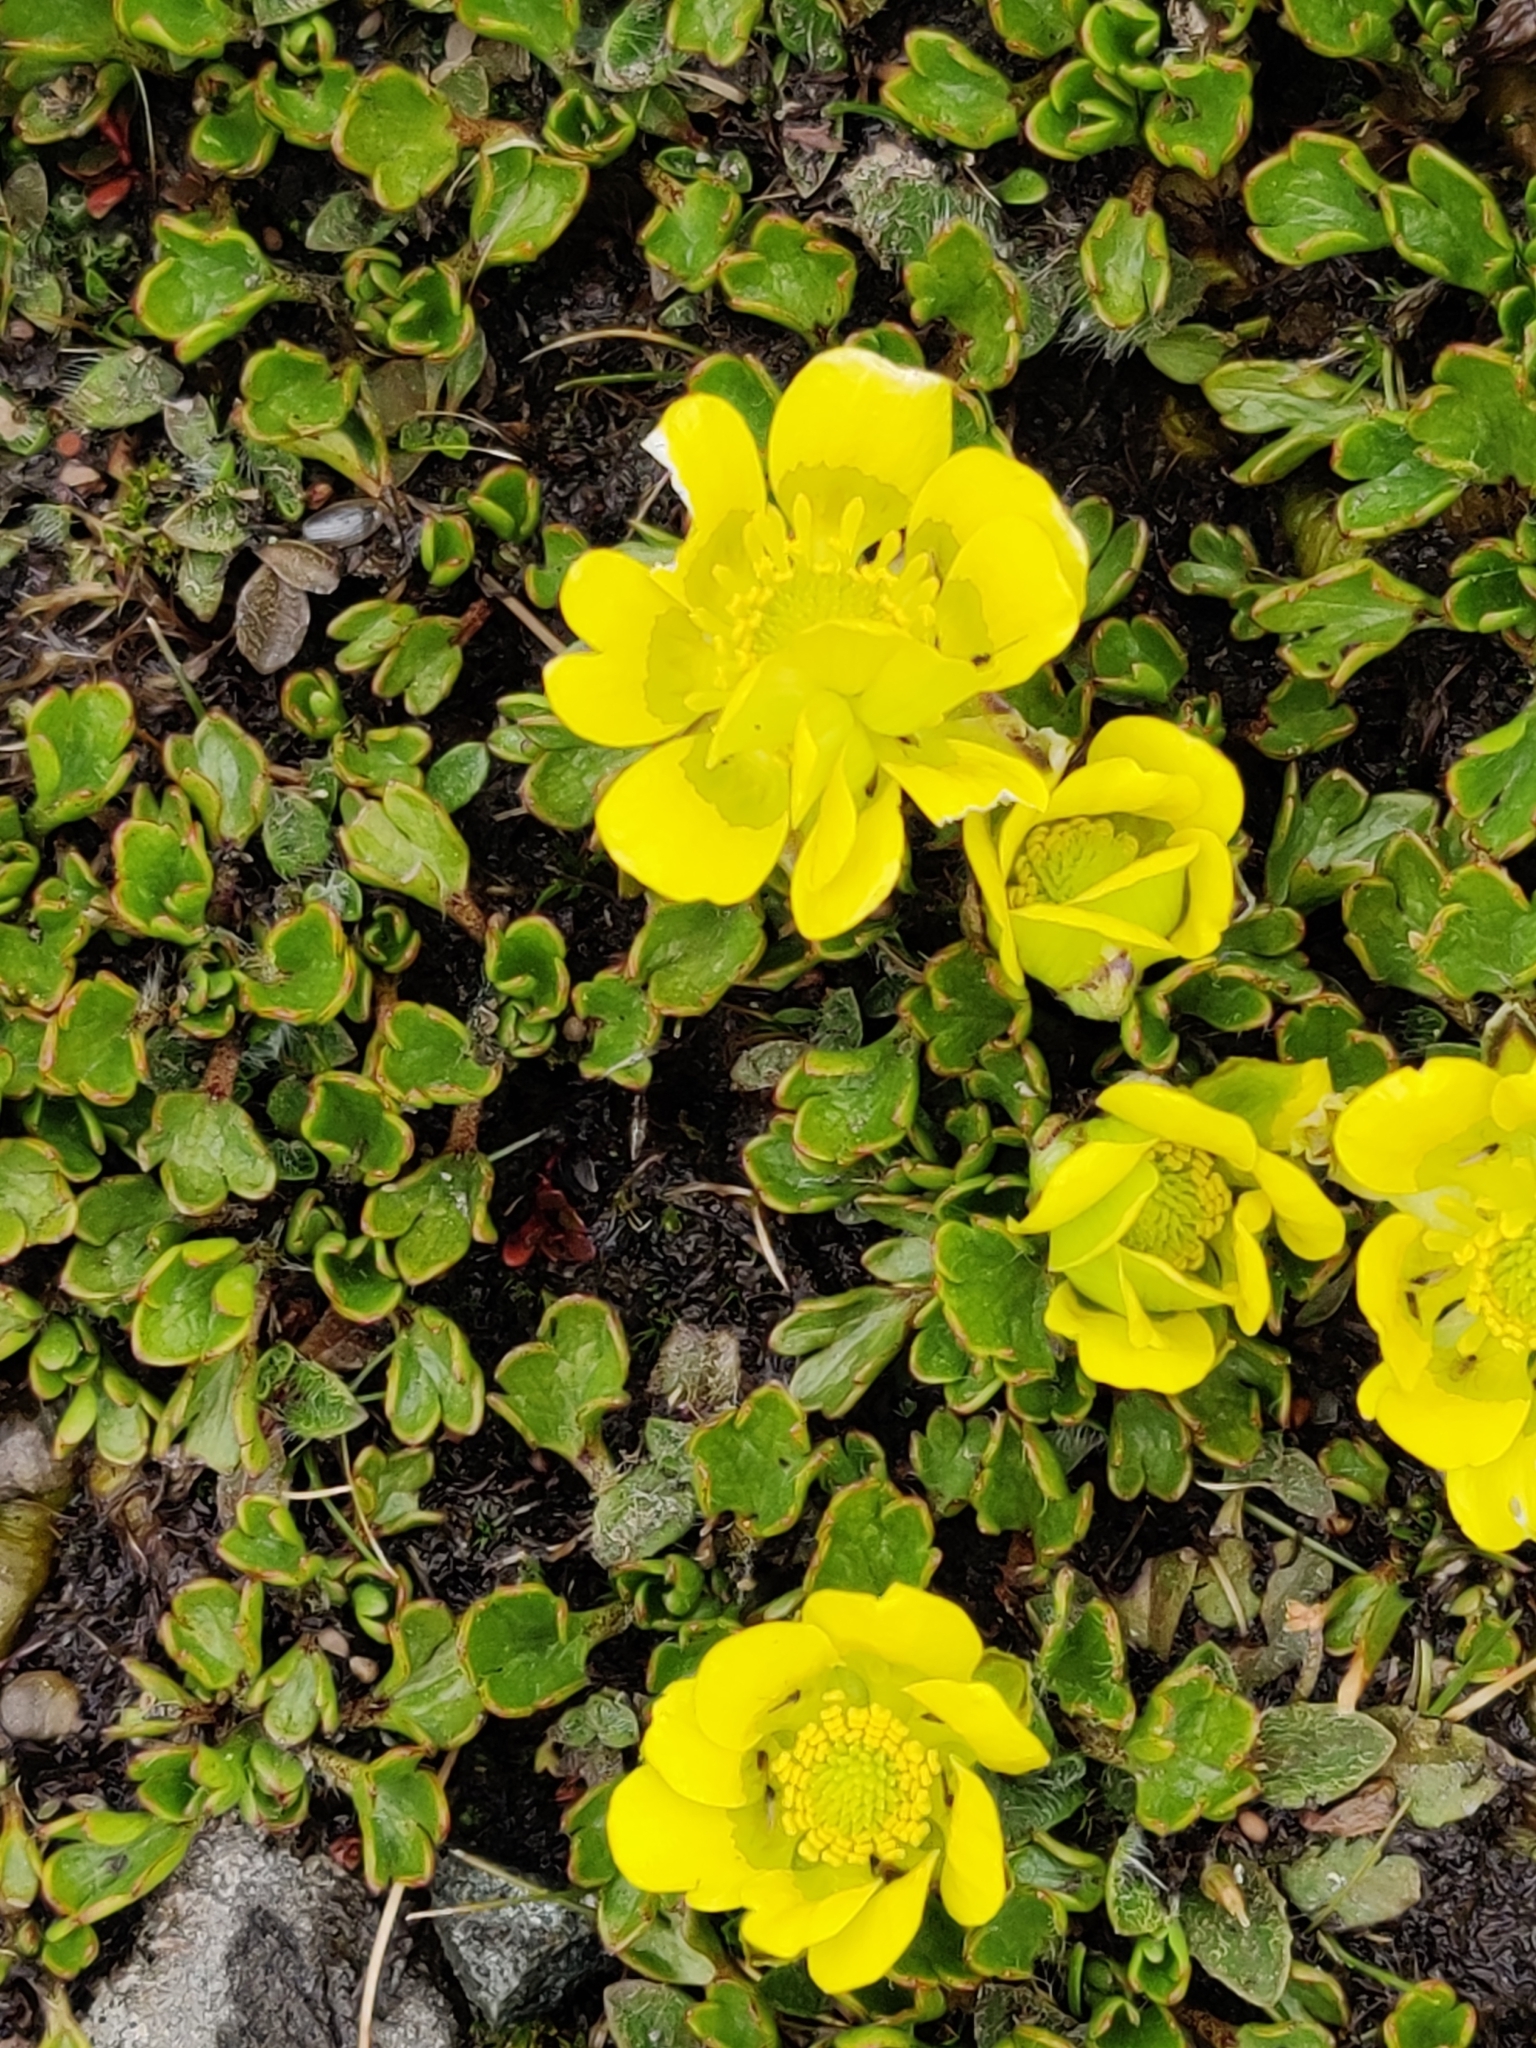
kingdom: Plantae
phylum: Tracheophyta
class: Magnoliopsida
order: Ranunculales
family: Ranunculaceae
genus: Ranunculus
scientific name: Ranunculus pachyrrhizus
